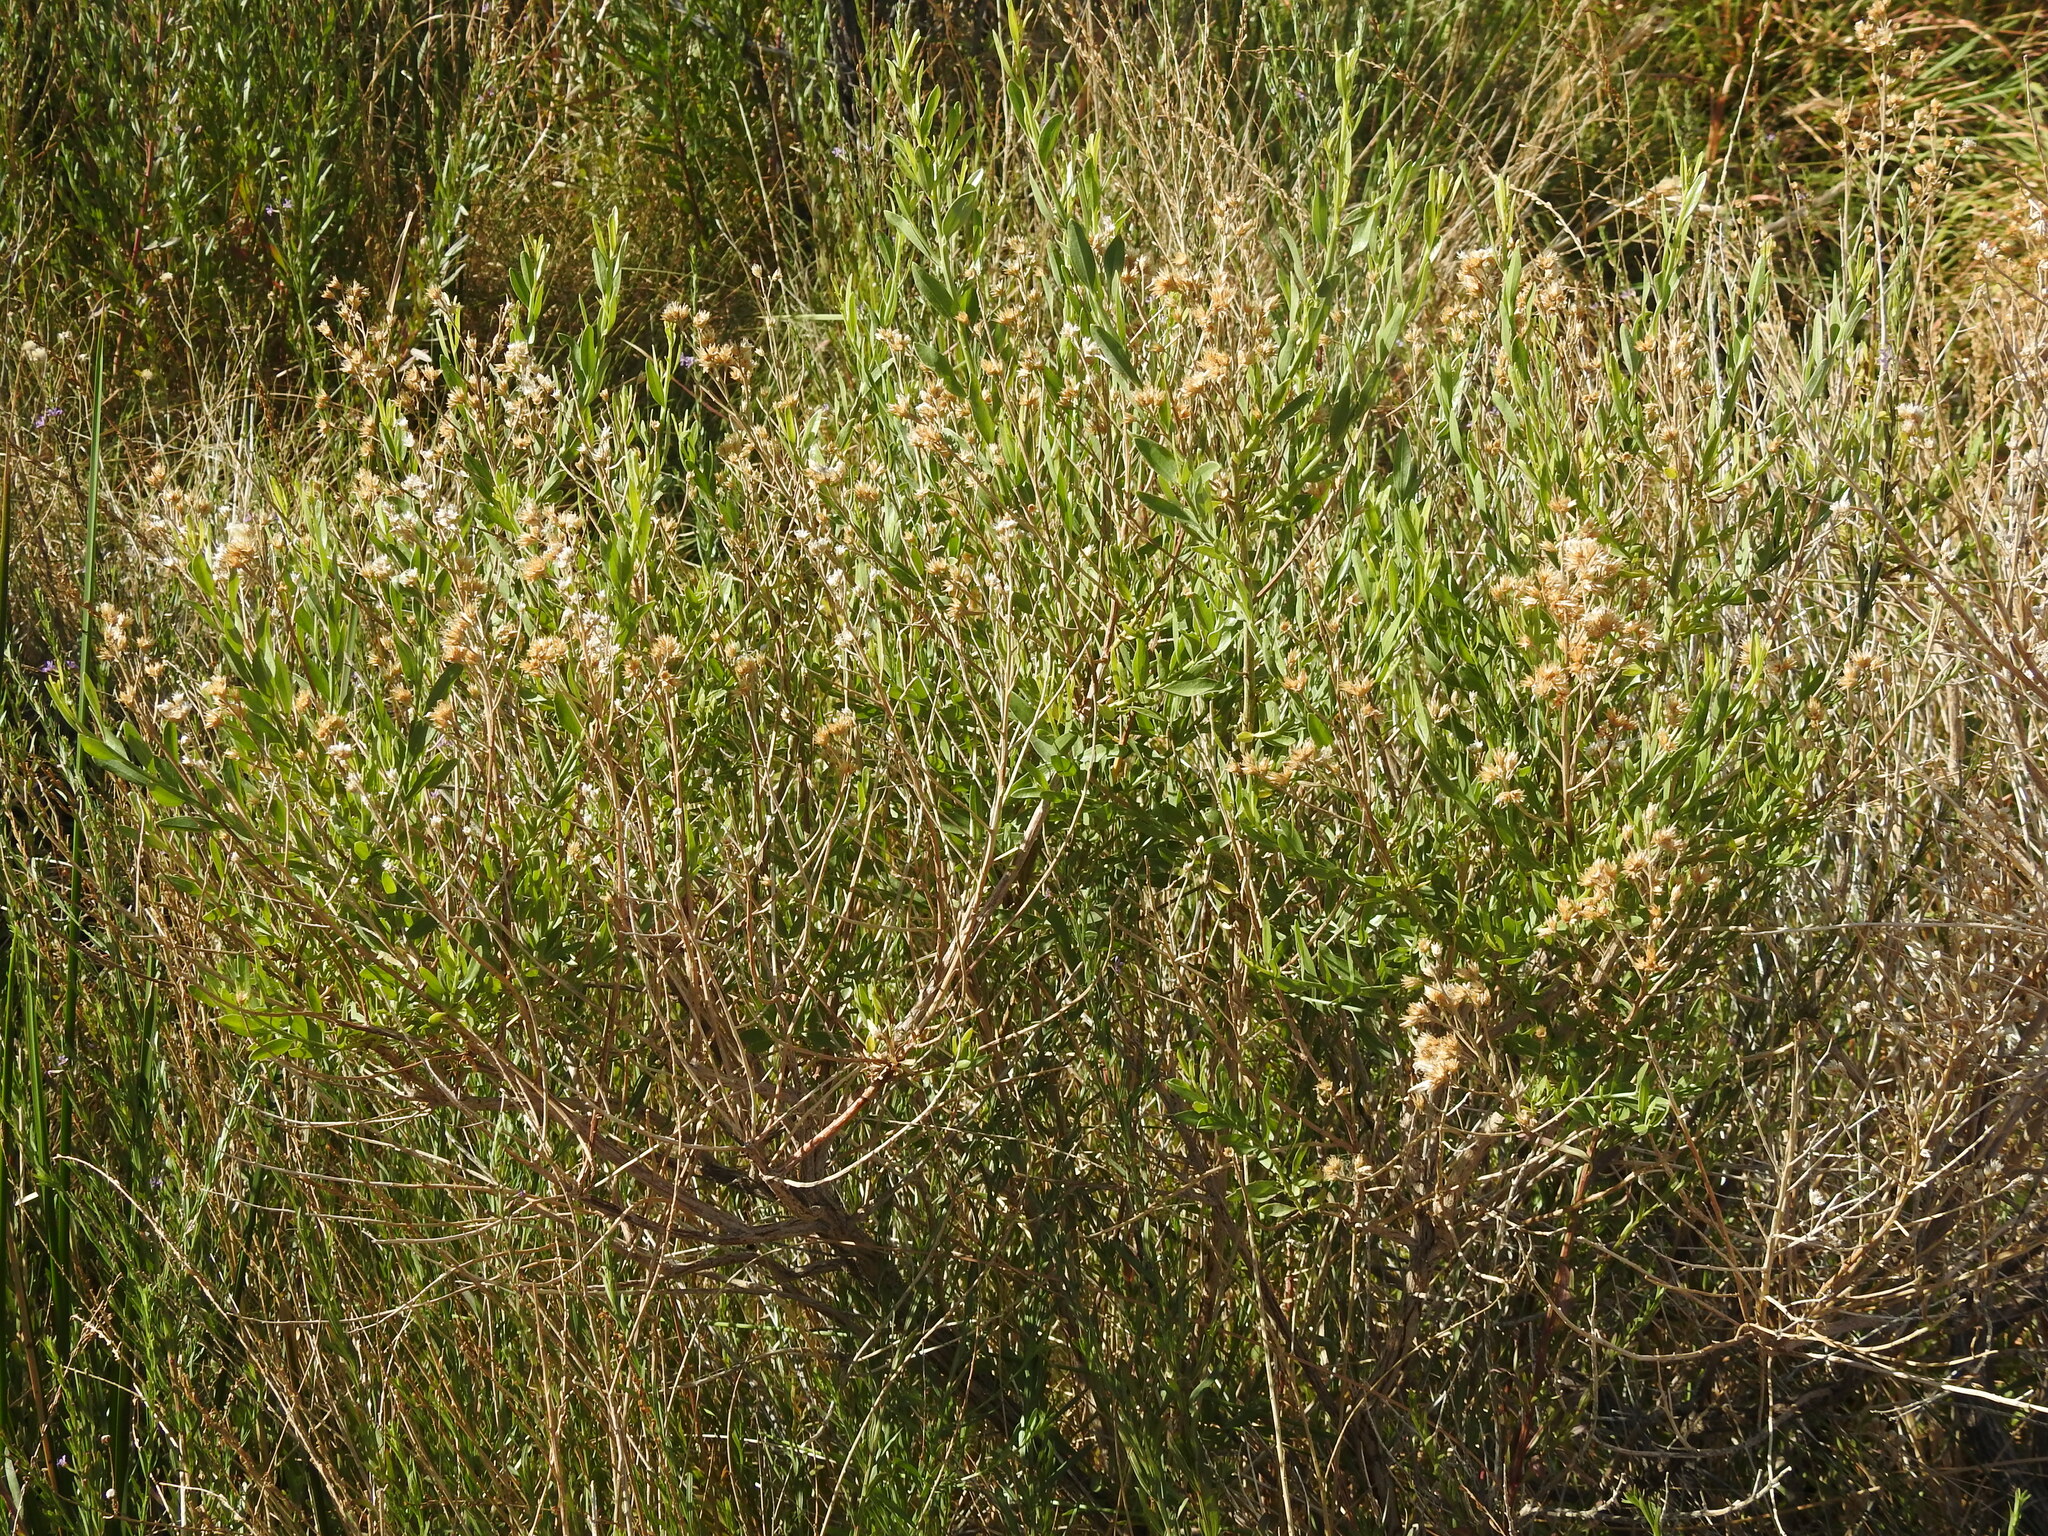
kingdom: Plantae
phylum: Tracheophyta
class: Magnoliopsida
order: Asterales
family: Asteraceae
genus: Baccharis
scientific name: Baccharis salicina
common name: Willow baccharis
